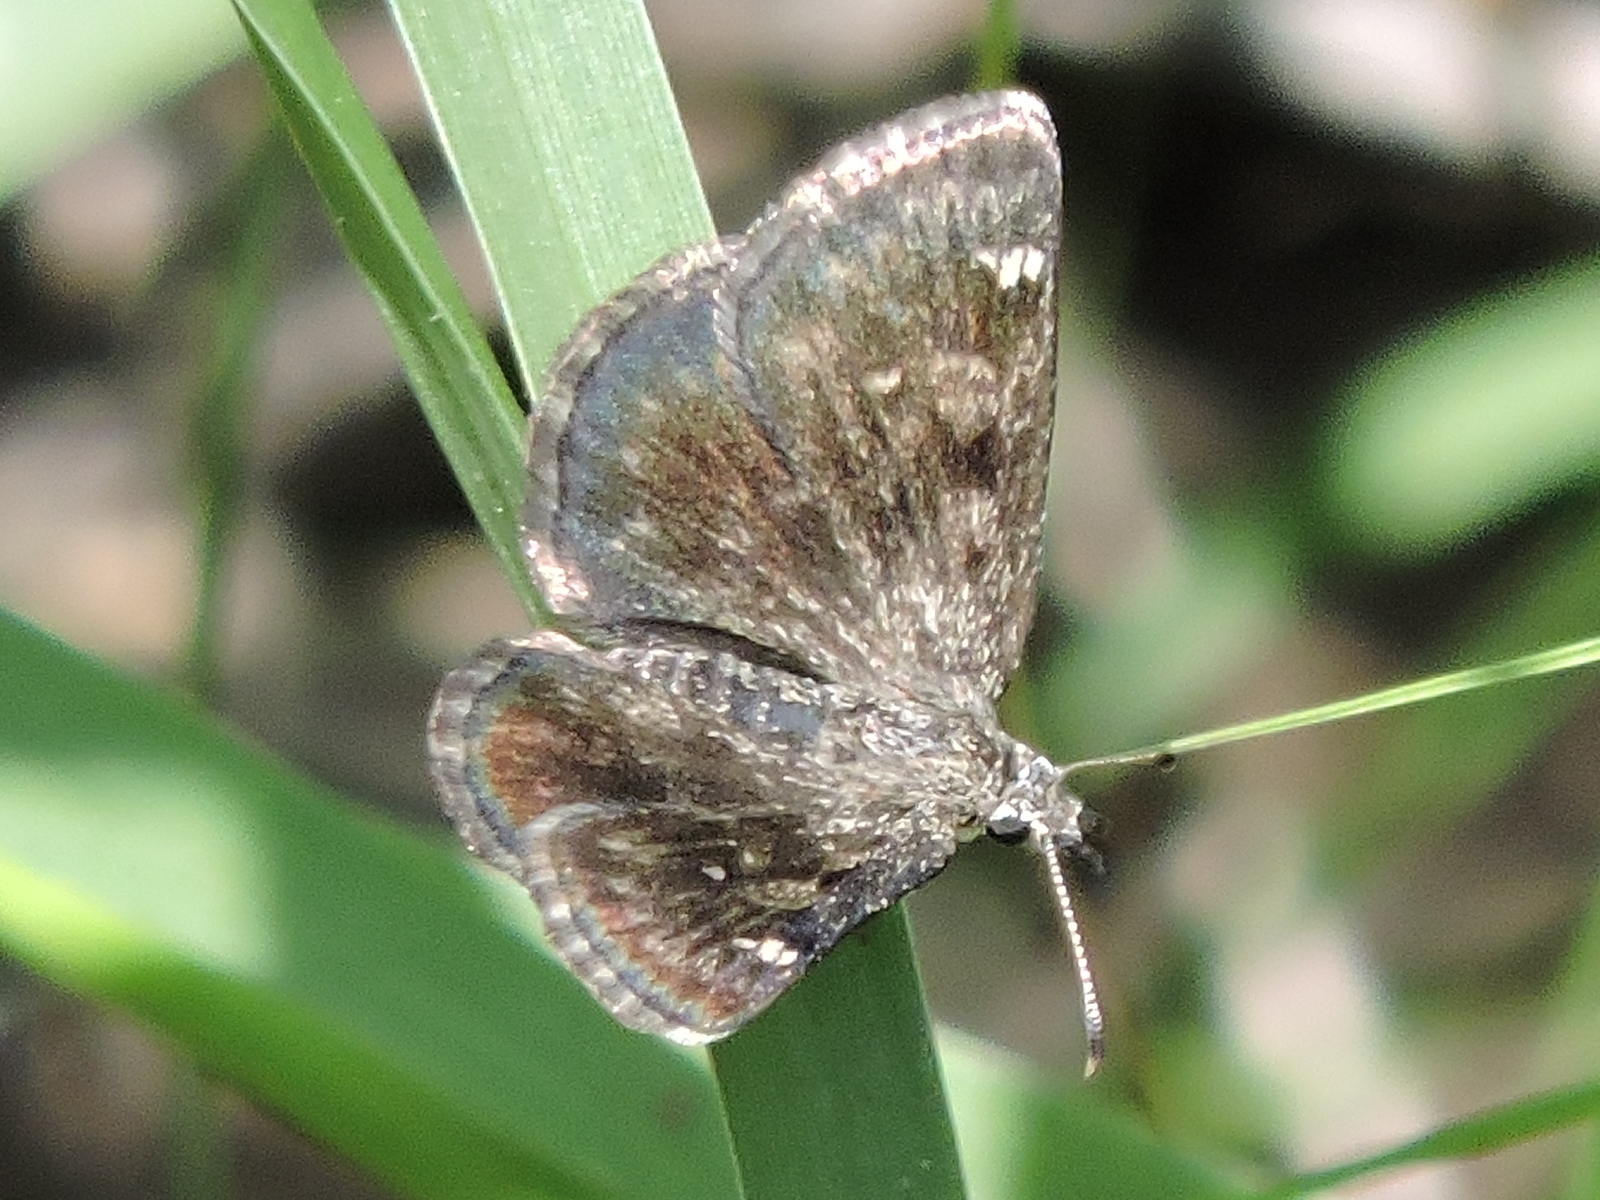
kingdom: Animalia
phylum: Arthropoda
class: Insecta
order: Lepidoptera
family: Hesperiidae
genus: Hesperopsis
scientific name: Hesperopsis alpheus
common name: Saltbush sootywing
